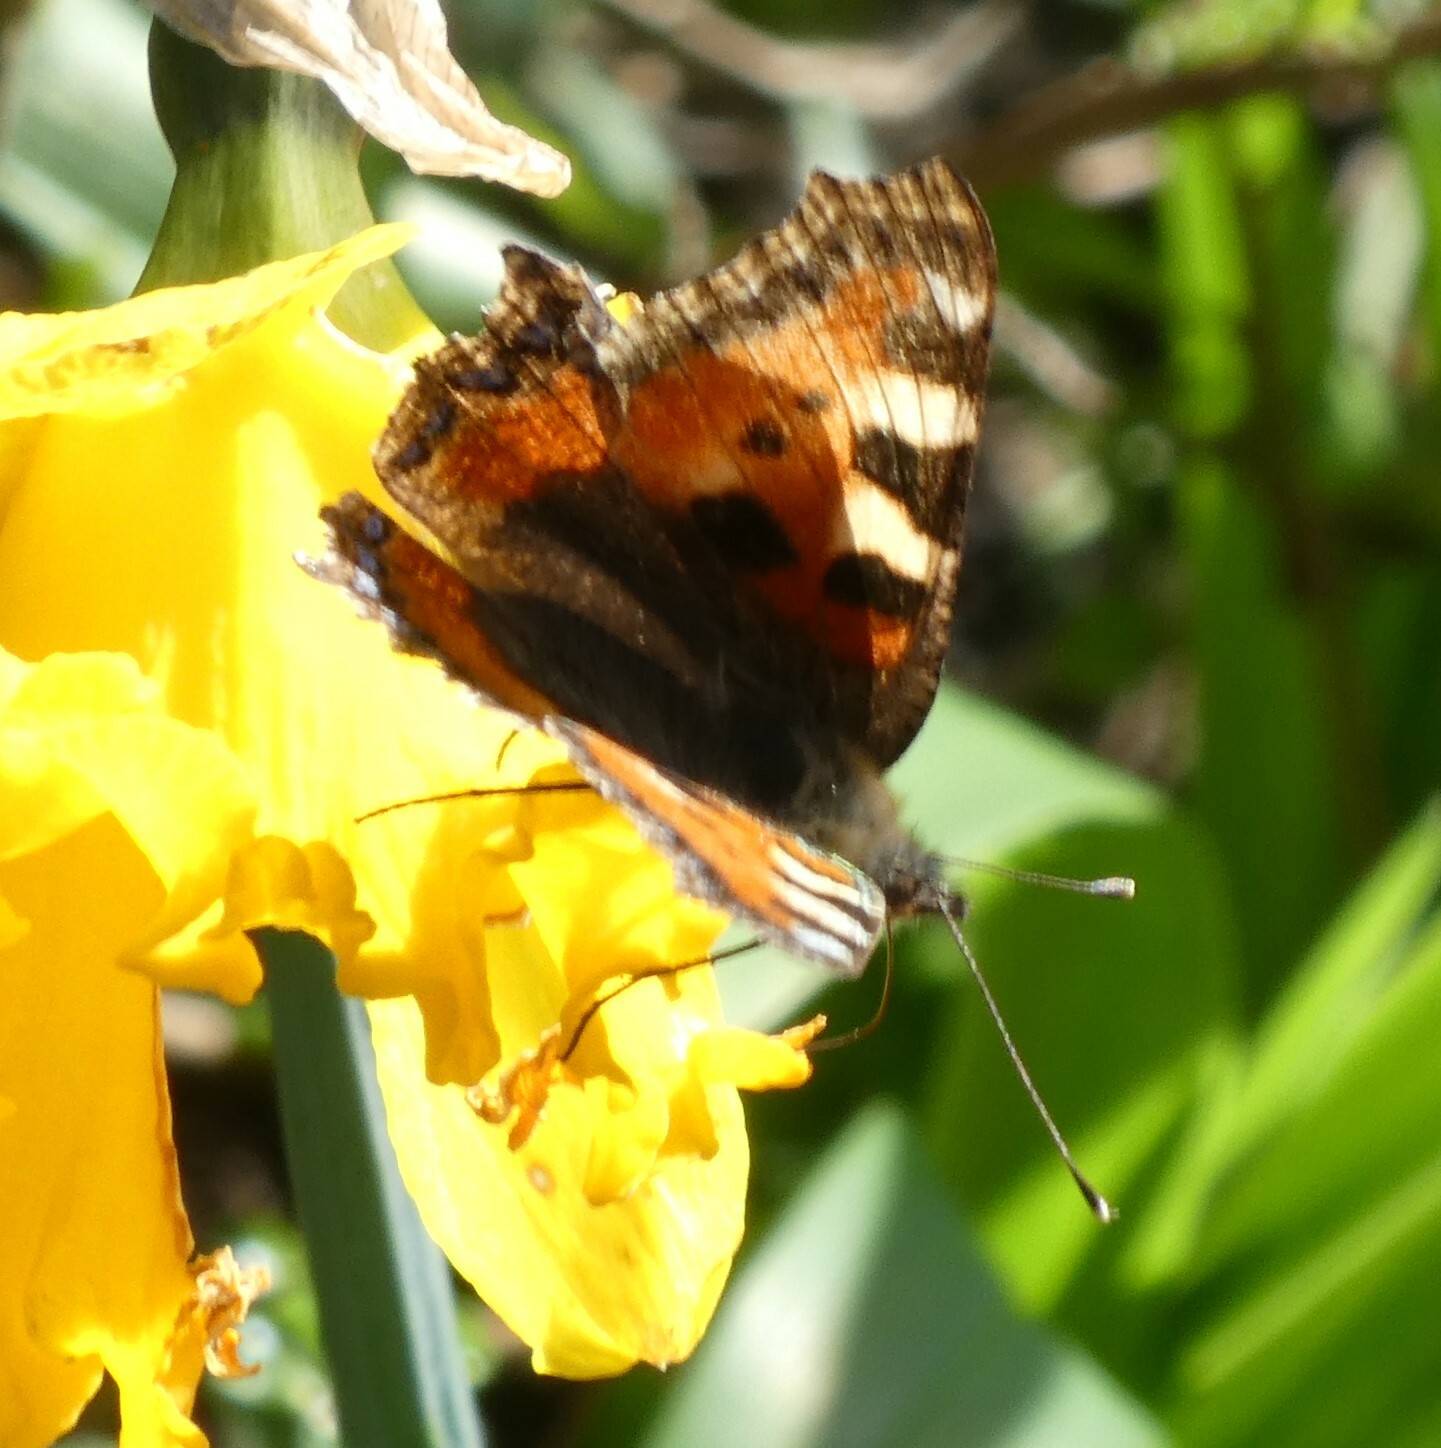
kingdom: Animalia
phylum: Arthropoda
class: Insecta
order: Lepidoptera
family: Nymphalidae
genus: Aglais
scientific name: Aglais urticae
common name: Small tortoiseshell
